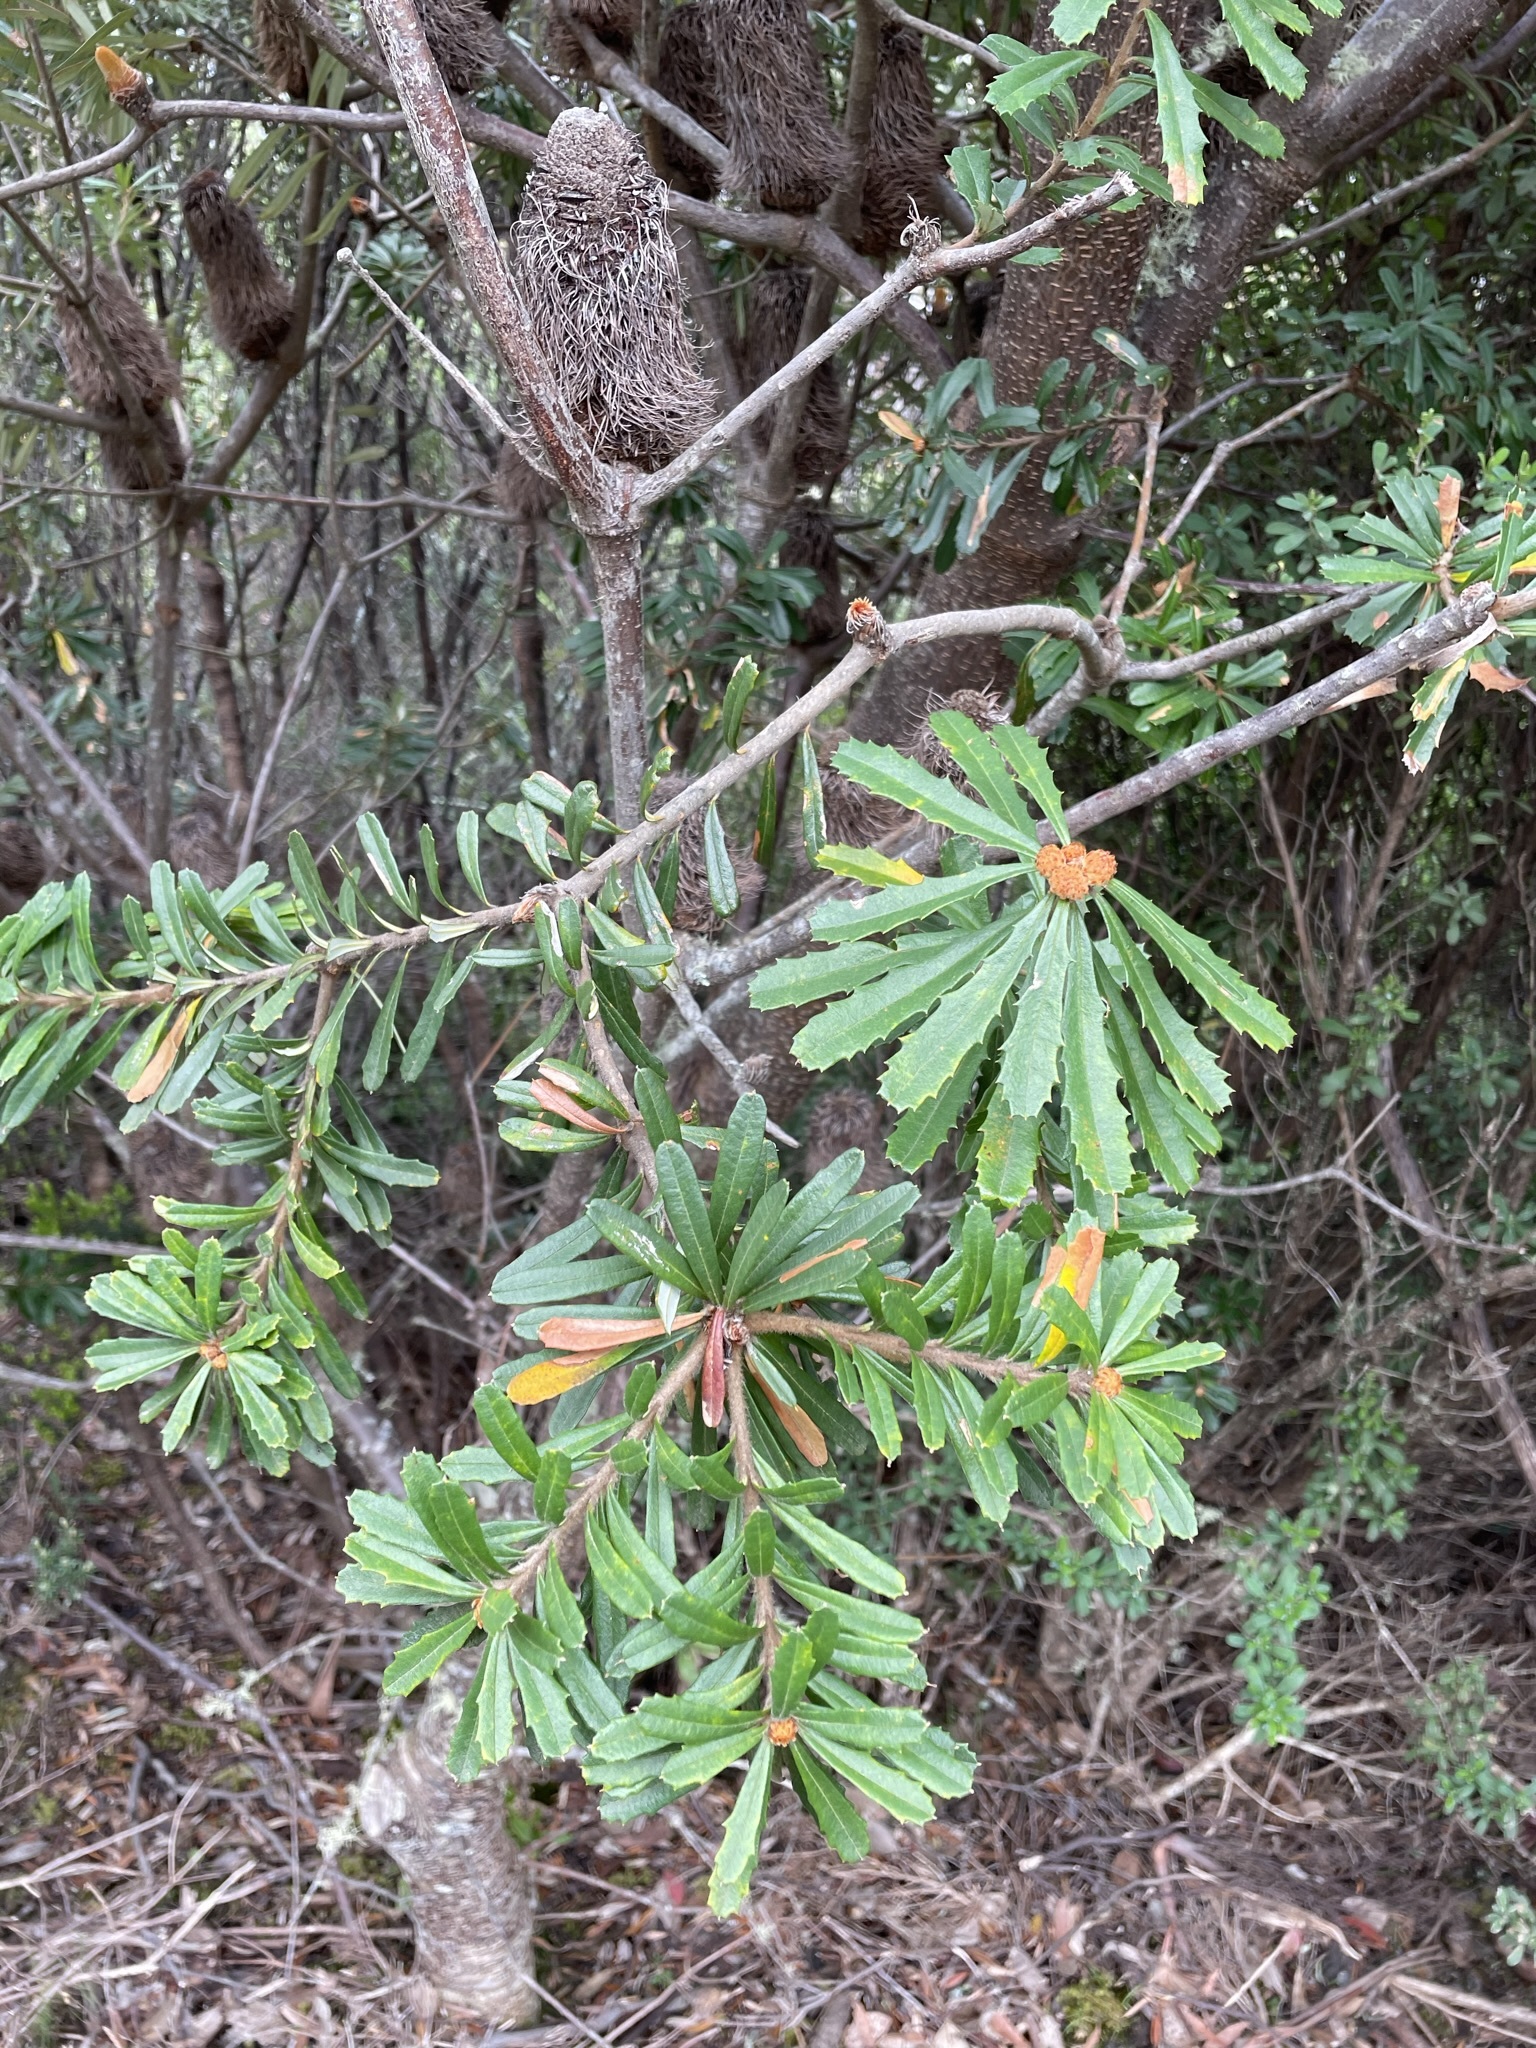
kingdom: Plantae
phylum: Tracheophyta
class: Magnoliopsida
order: Proteales
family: Proteaceae
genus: Banksia
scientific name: Banksia marginata
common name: Silver banksia
